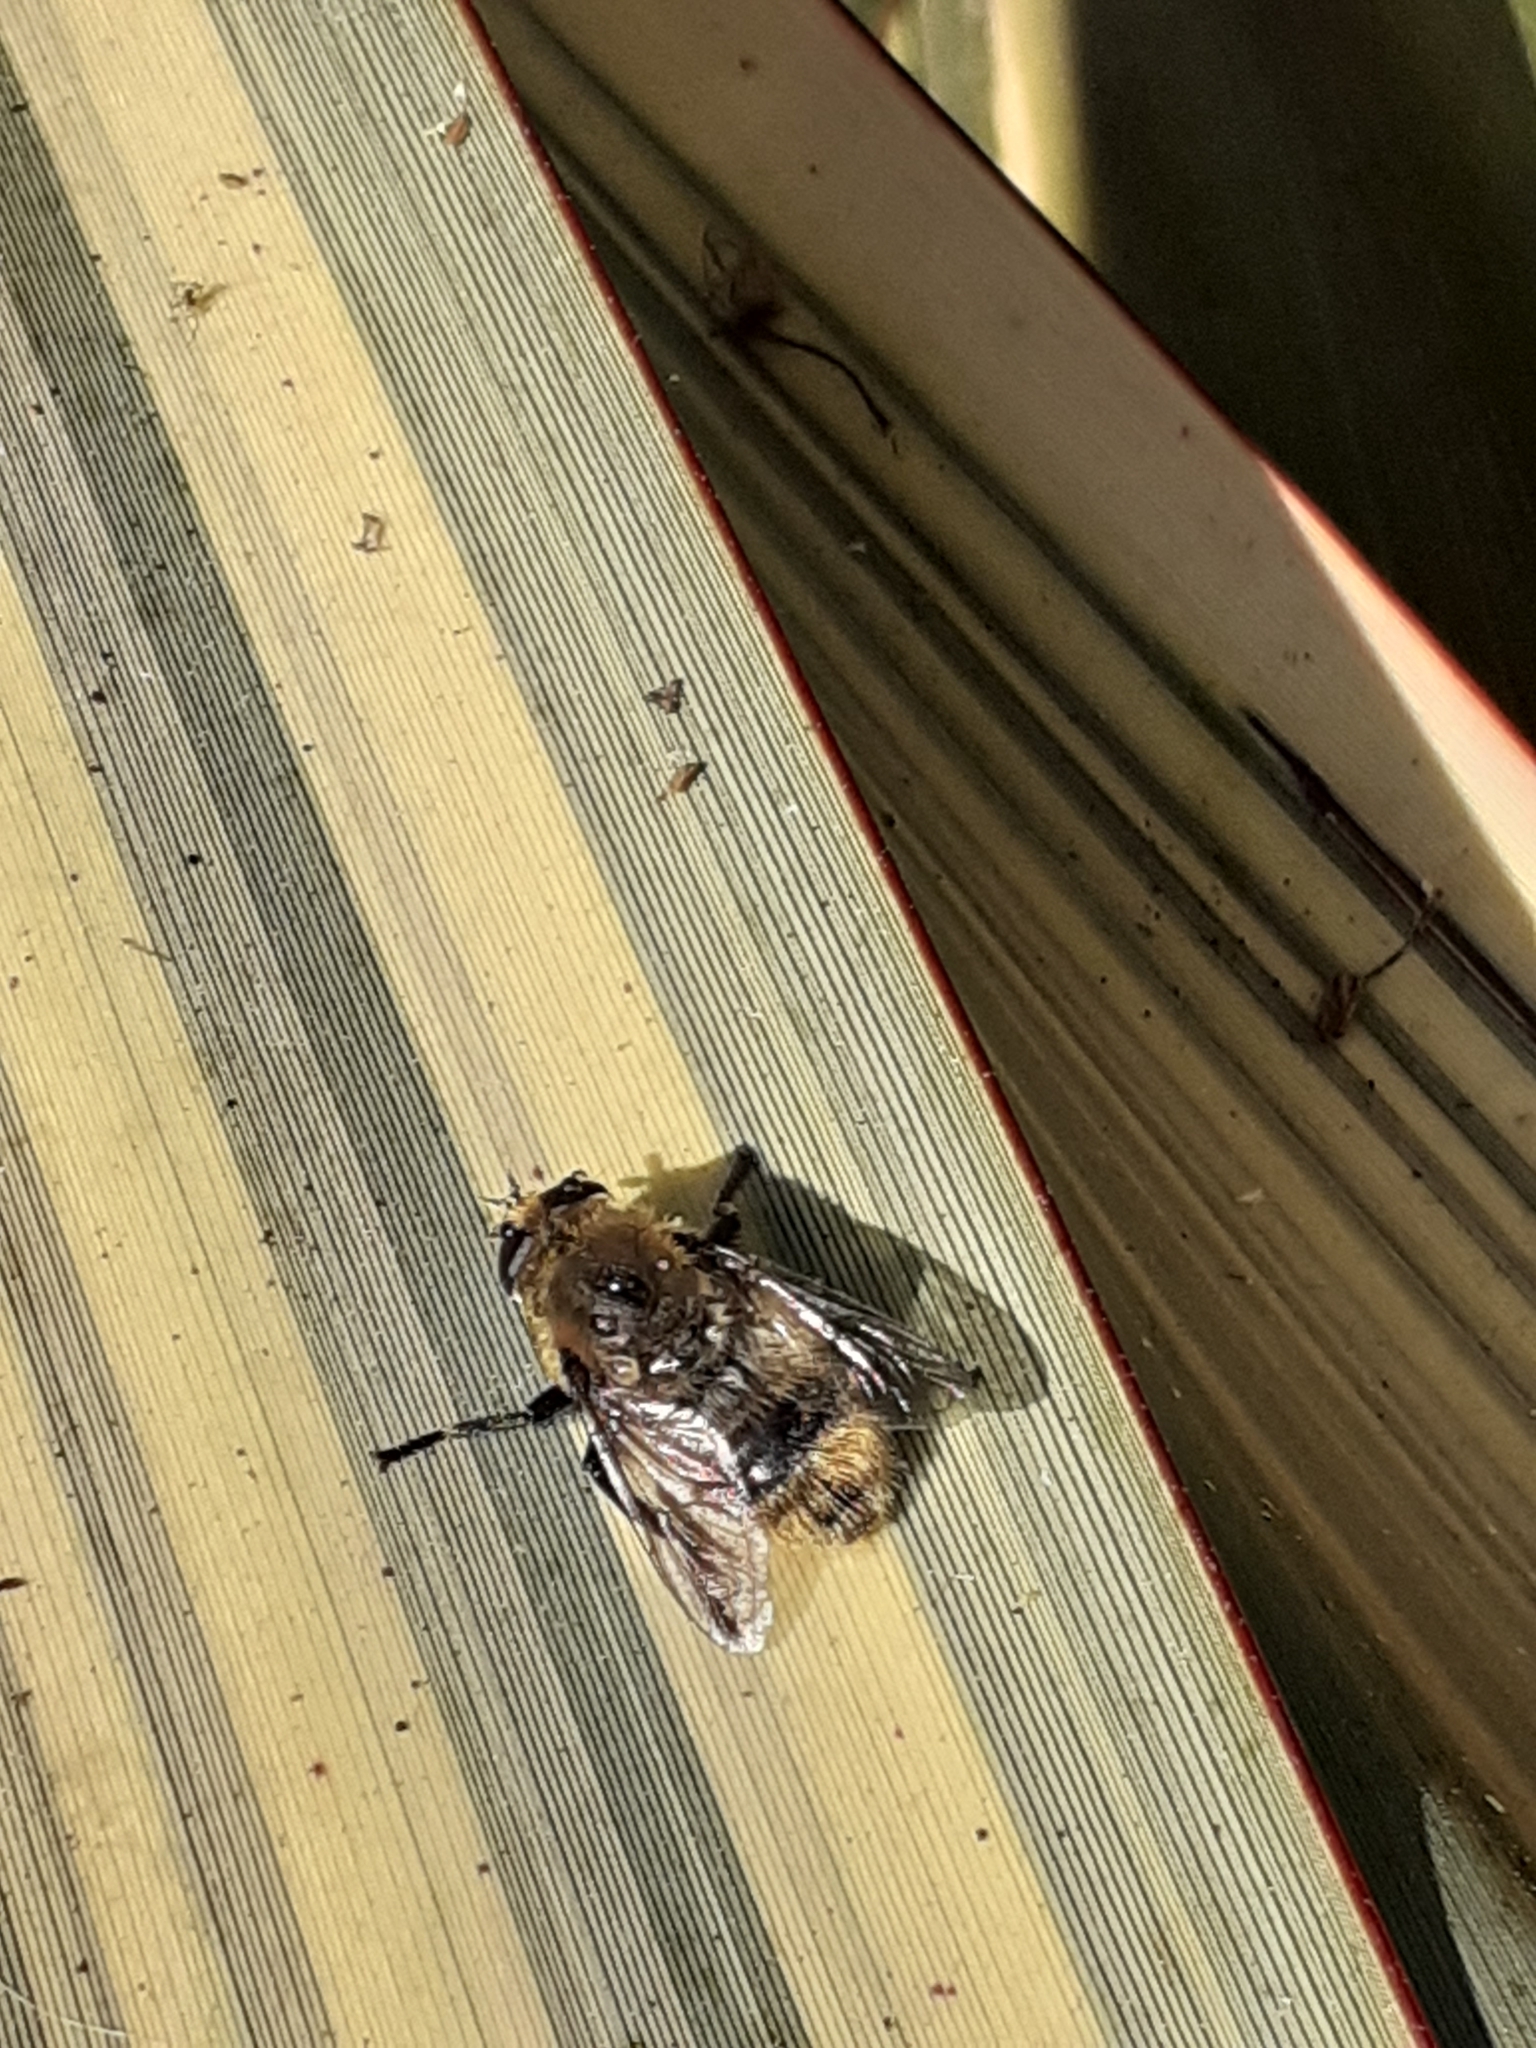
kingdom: Animalia
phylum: Arthropoda
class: Insecta
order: Diptera
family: Syrphidae
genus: Merodon
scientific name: Merodon equestris
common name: Greater bulb-fly
